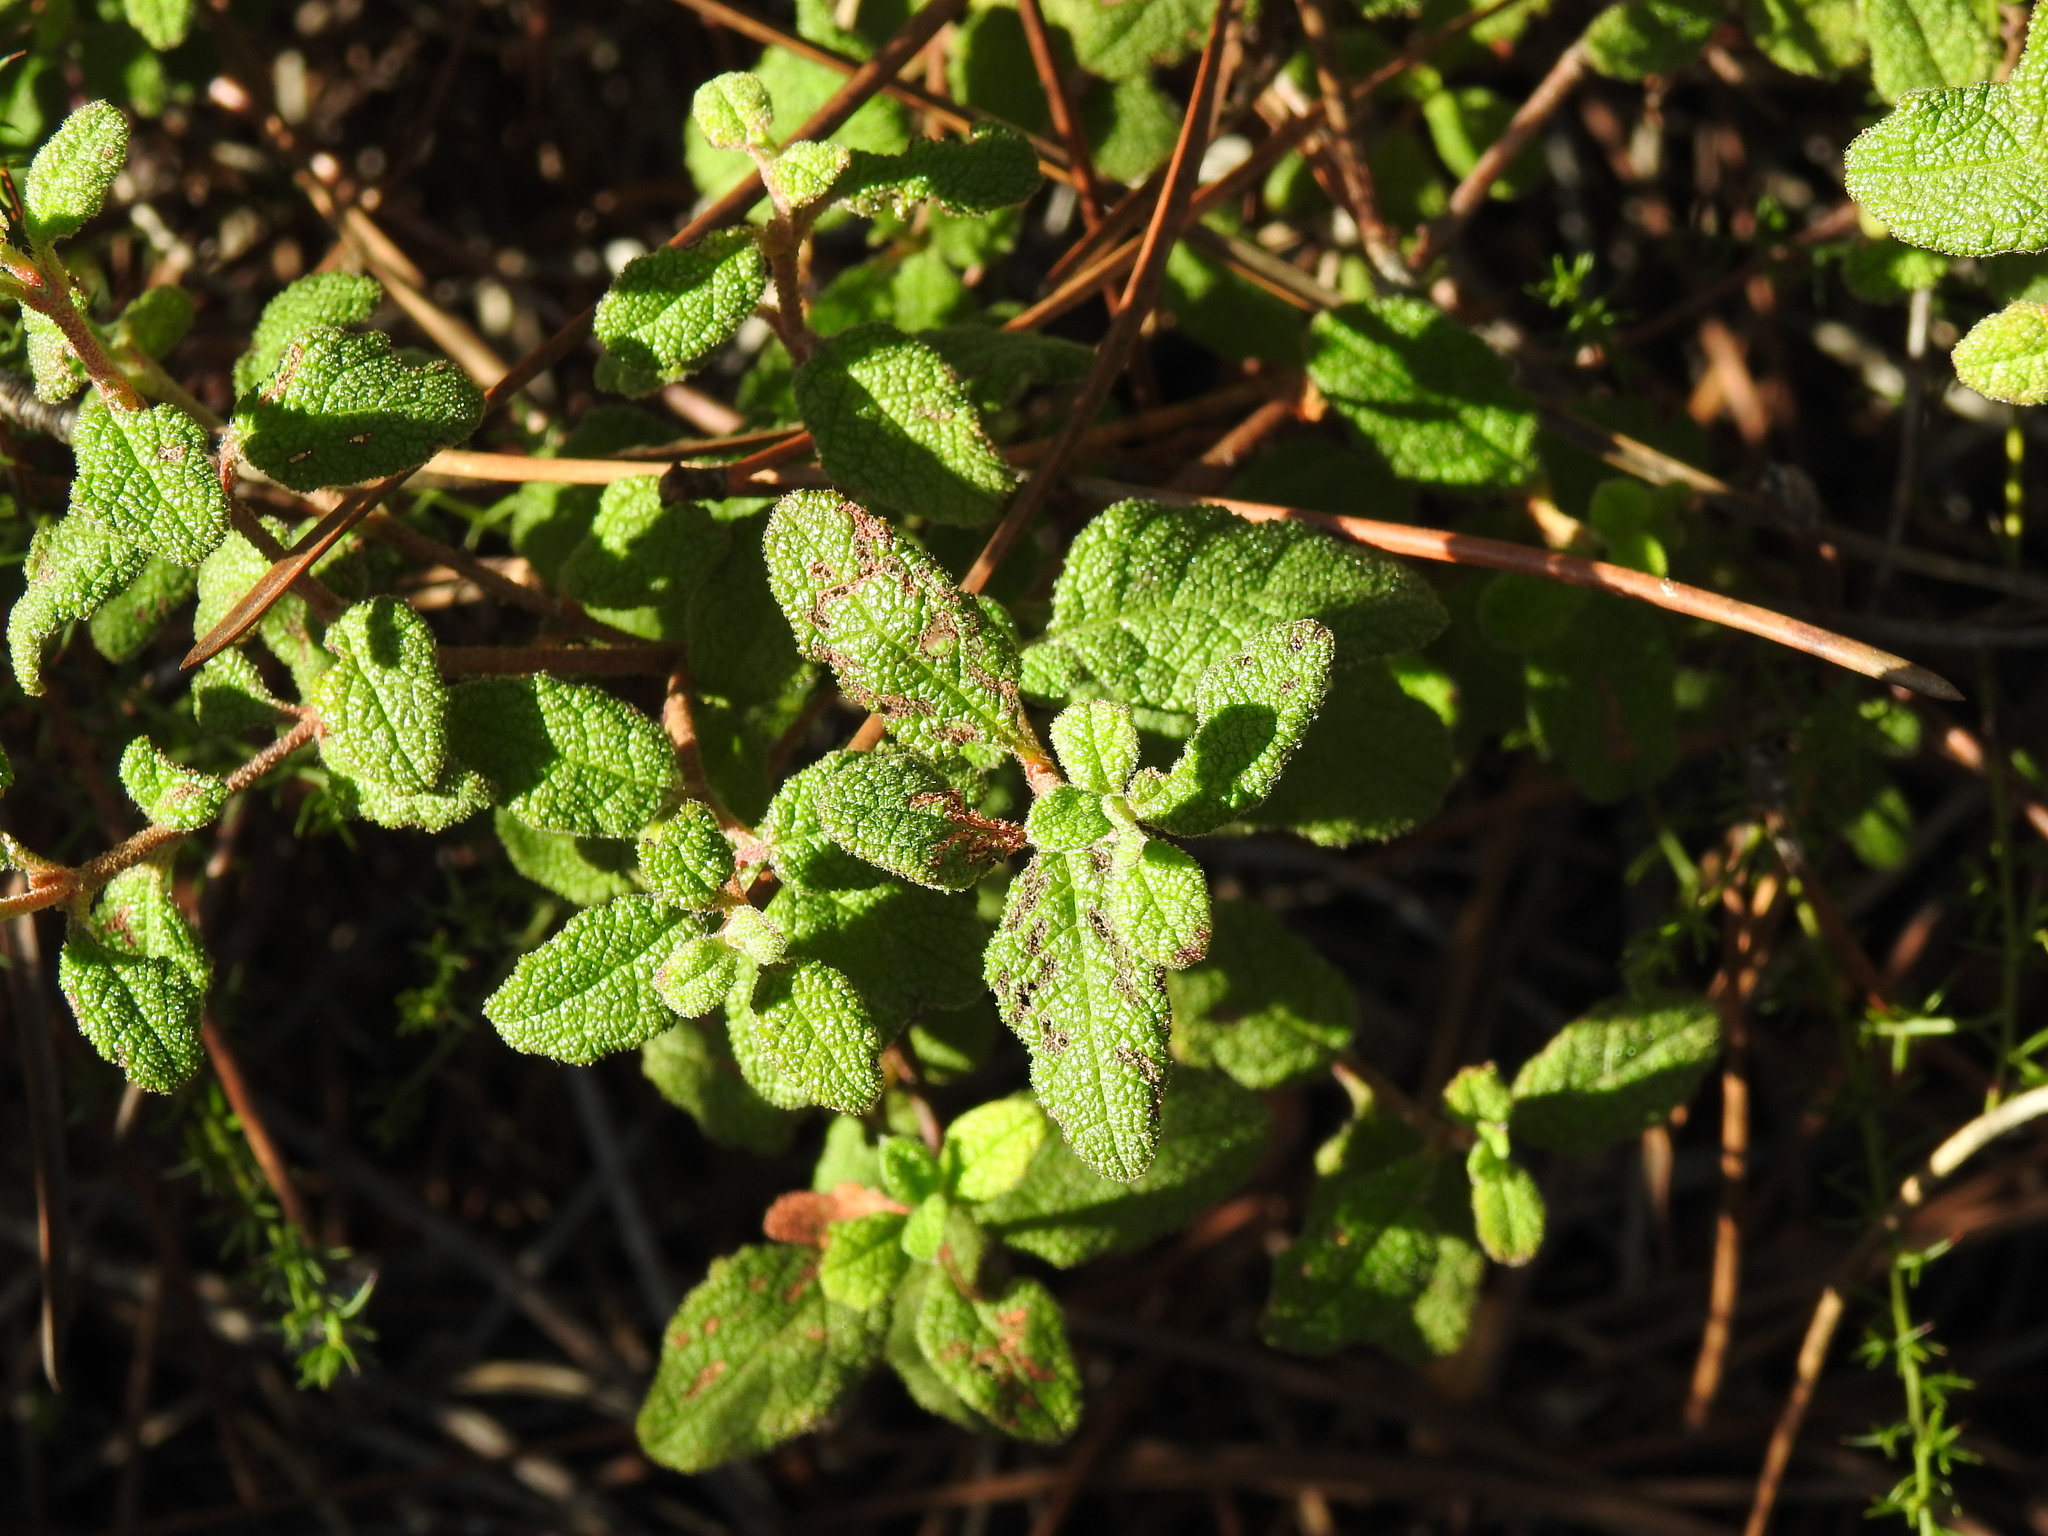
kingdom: Plantae
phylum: Tracheophyta
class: Magnoliopsida
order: Malvales
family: Cistaceae
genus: Cistus
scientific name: Cistus salviifolius
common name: Salvia cistus
